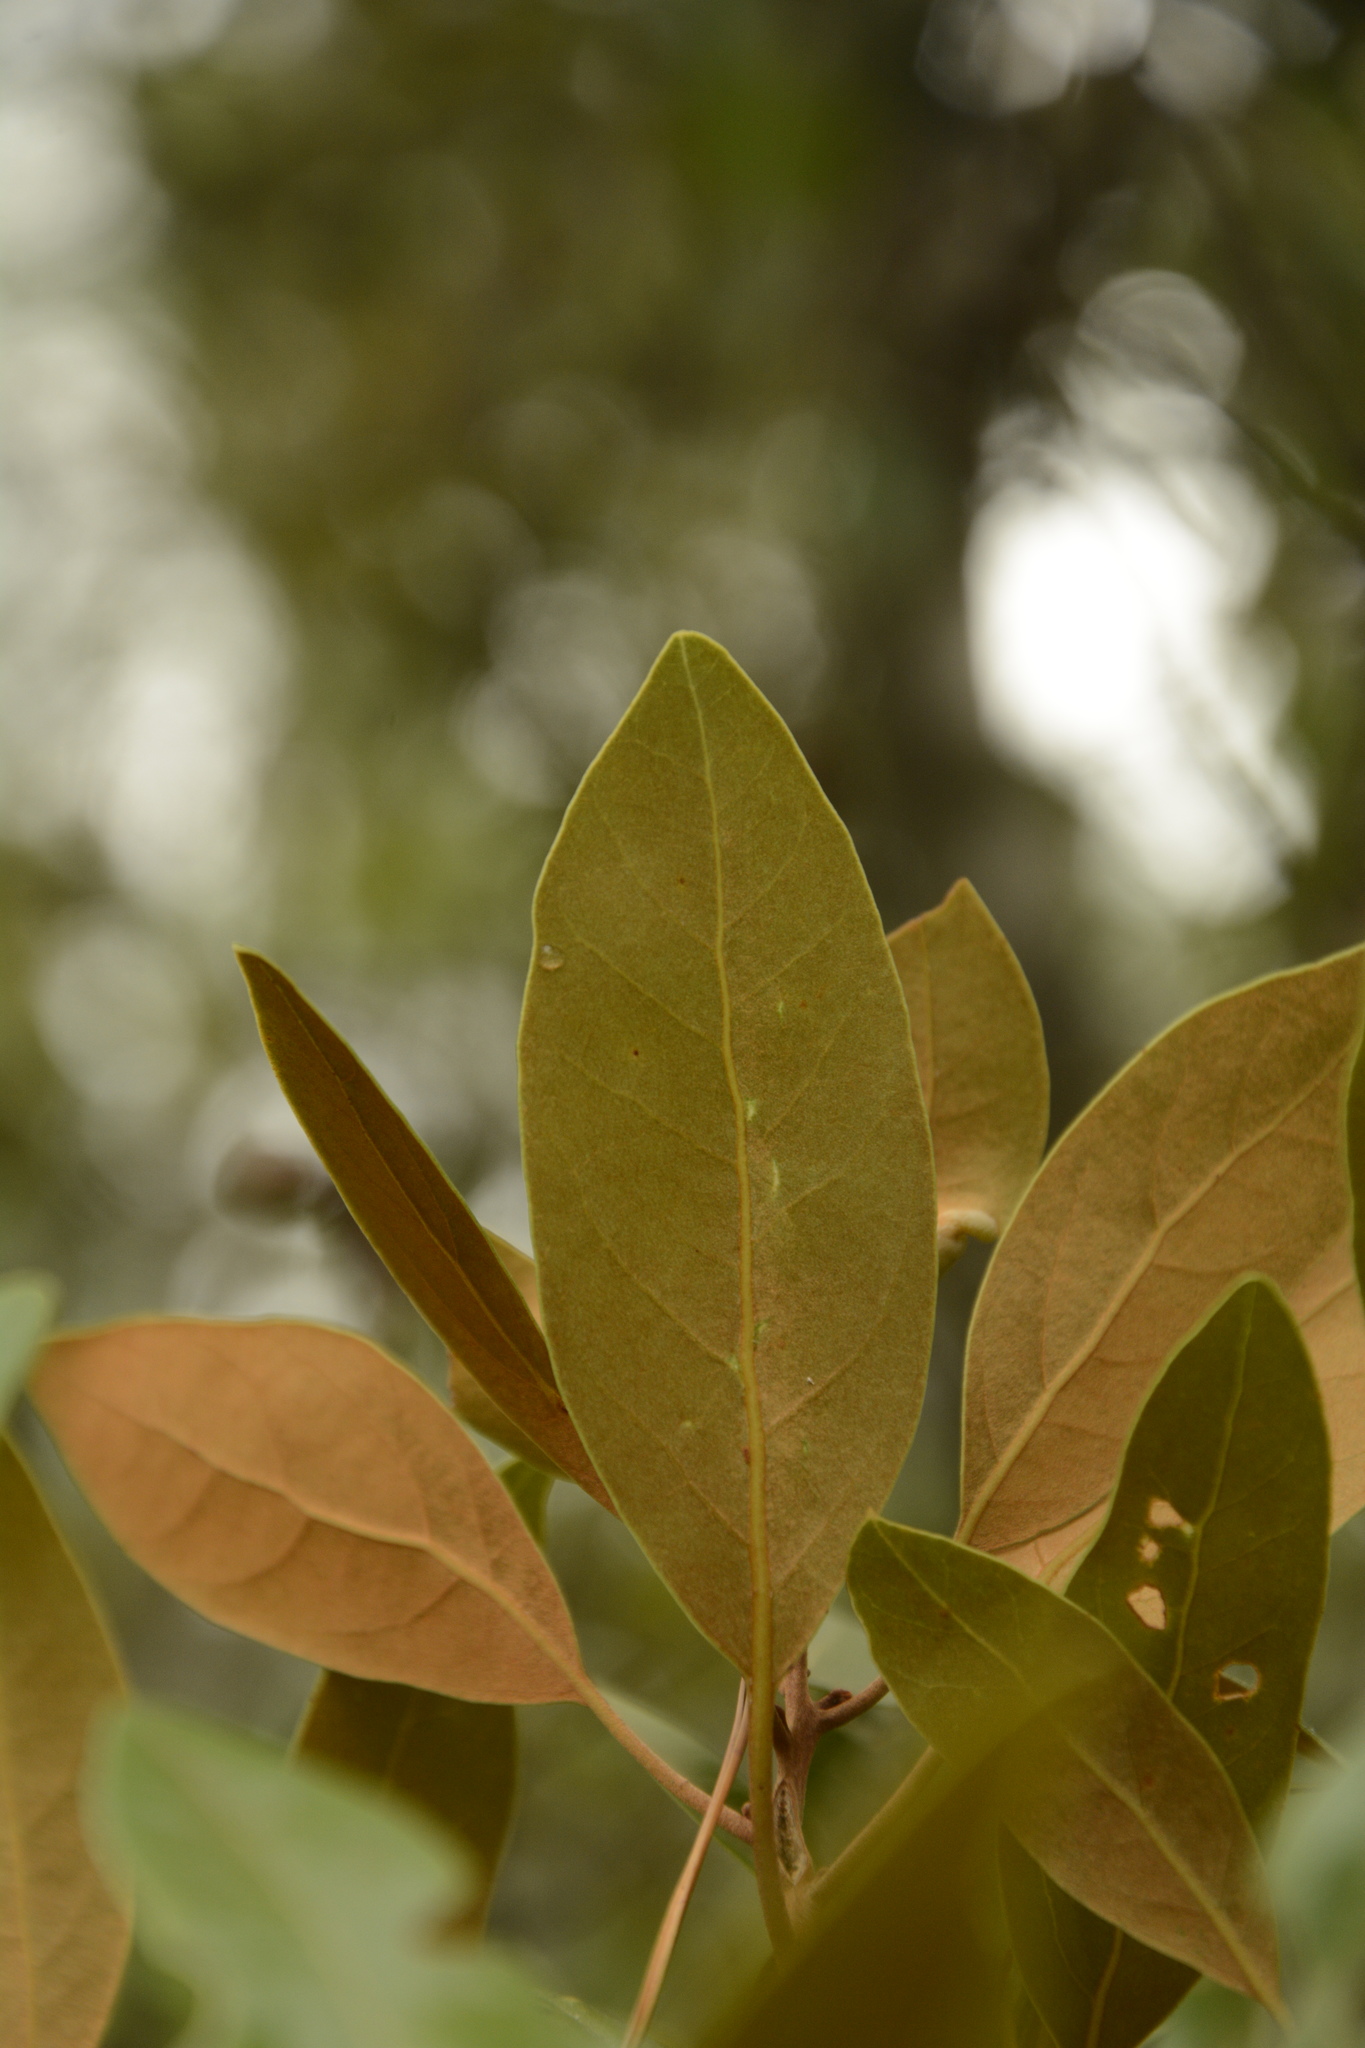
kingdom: Plantae
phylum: Tracheophyta
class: Magnoliopsida
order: Laurales
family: Lauraceae
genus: Persea
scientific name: Persea humilis
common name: Silkbay
